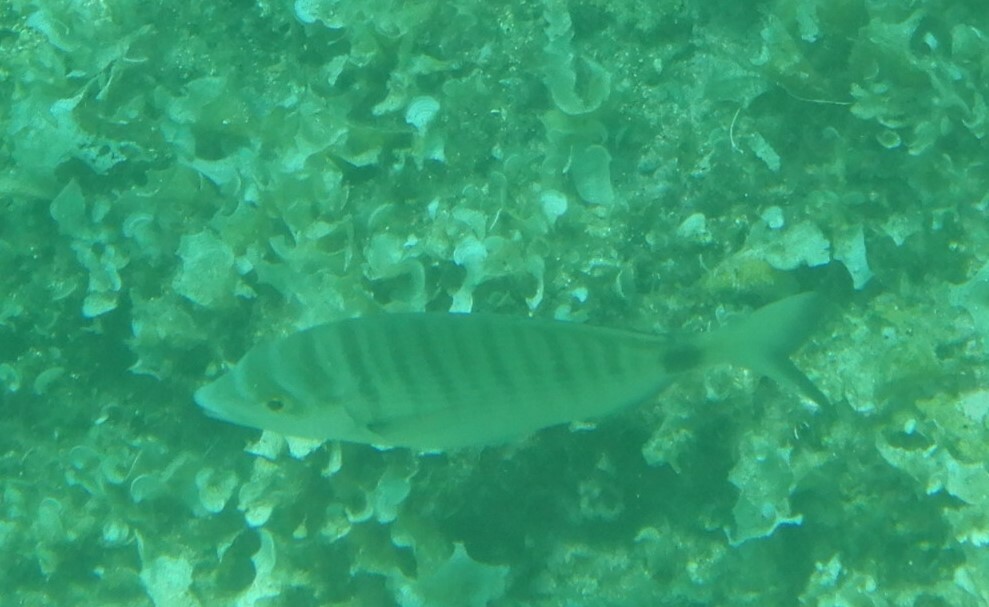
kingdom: Animalia
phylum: Chordata
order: Perciformes
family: Sparidae
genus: Diplodus
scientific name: Diplodus puntazzo
